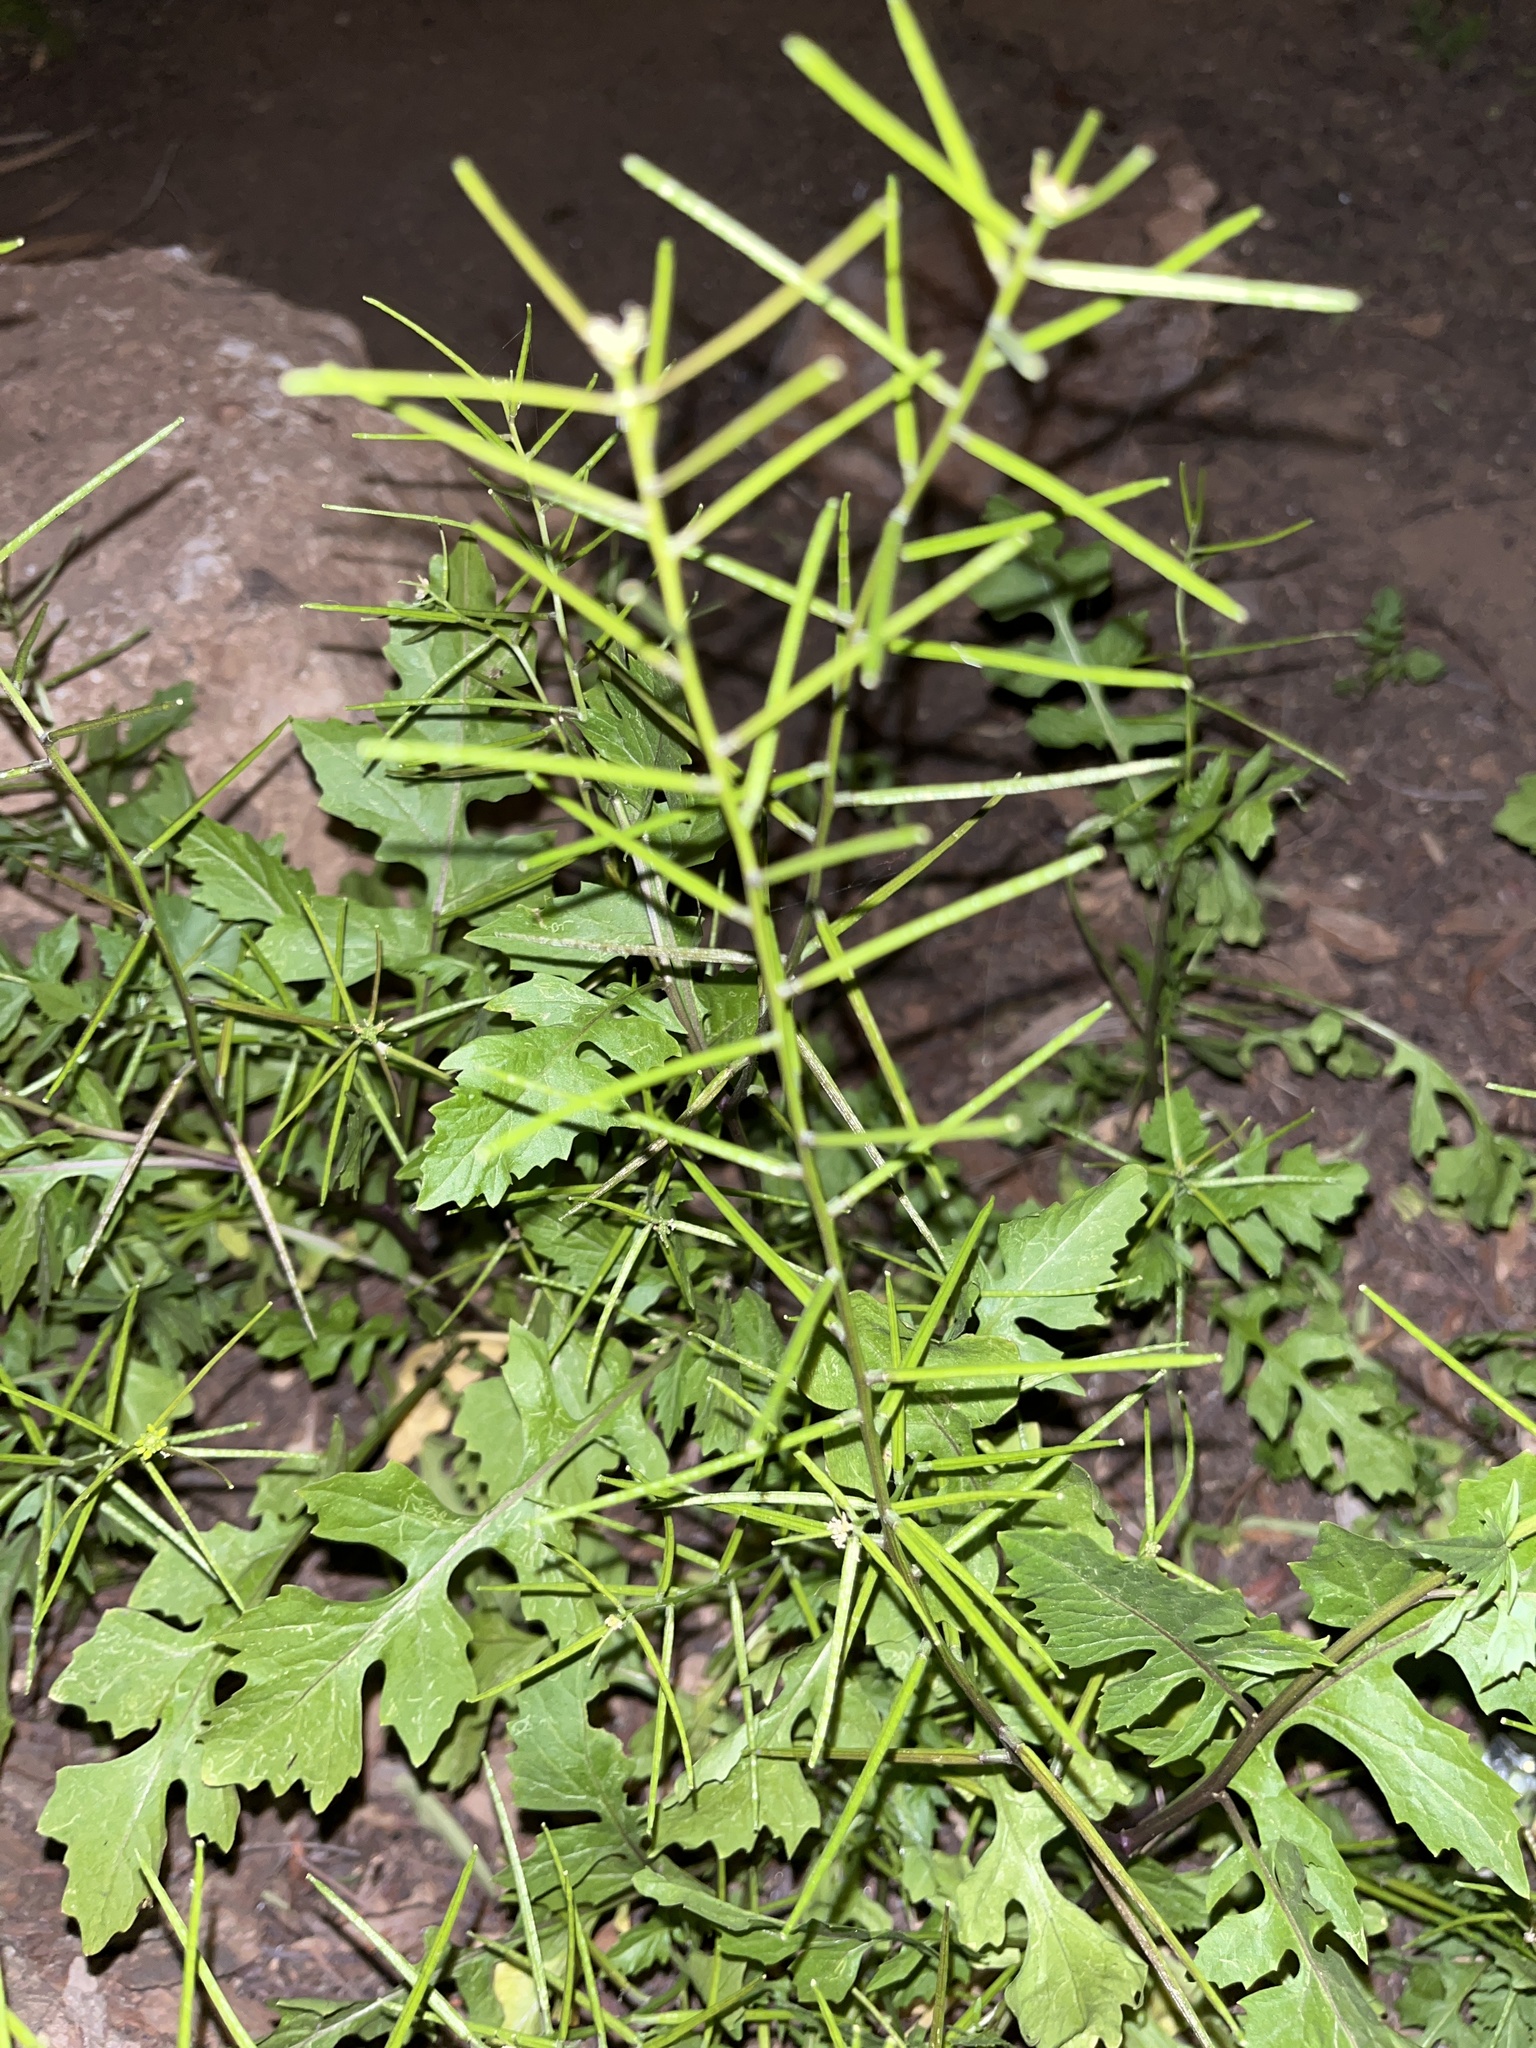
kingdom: Plantae
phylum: Tracheophyta
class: Magnoliopsida
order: Brassicales
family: Brassicaceae
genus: Sisymbrium
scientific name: Sisymbrium erysimoides
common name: French rocket
